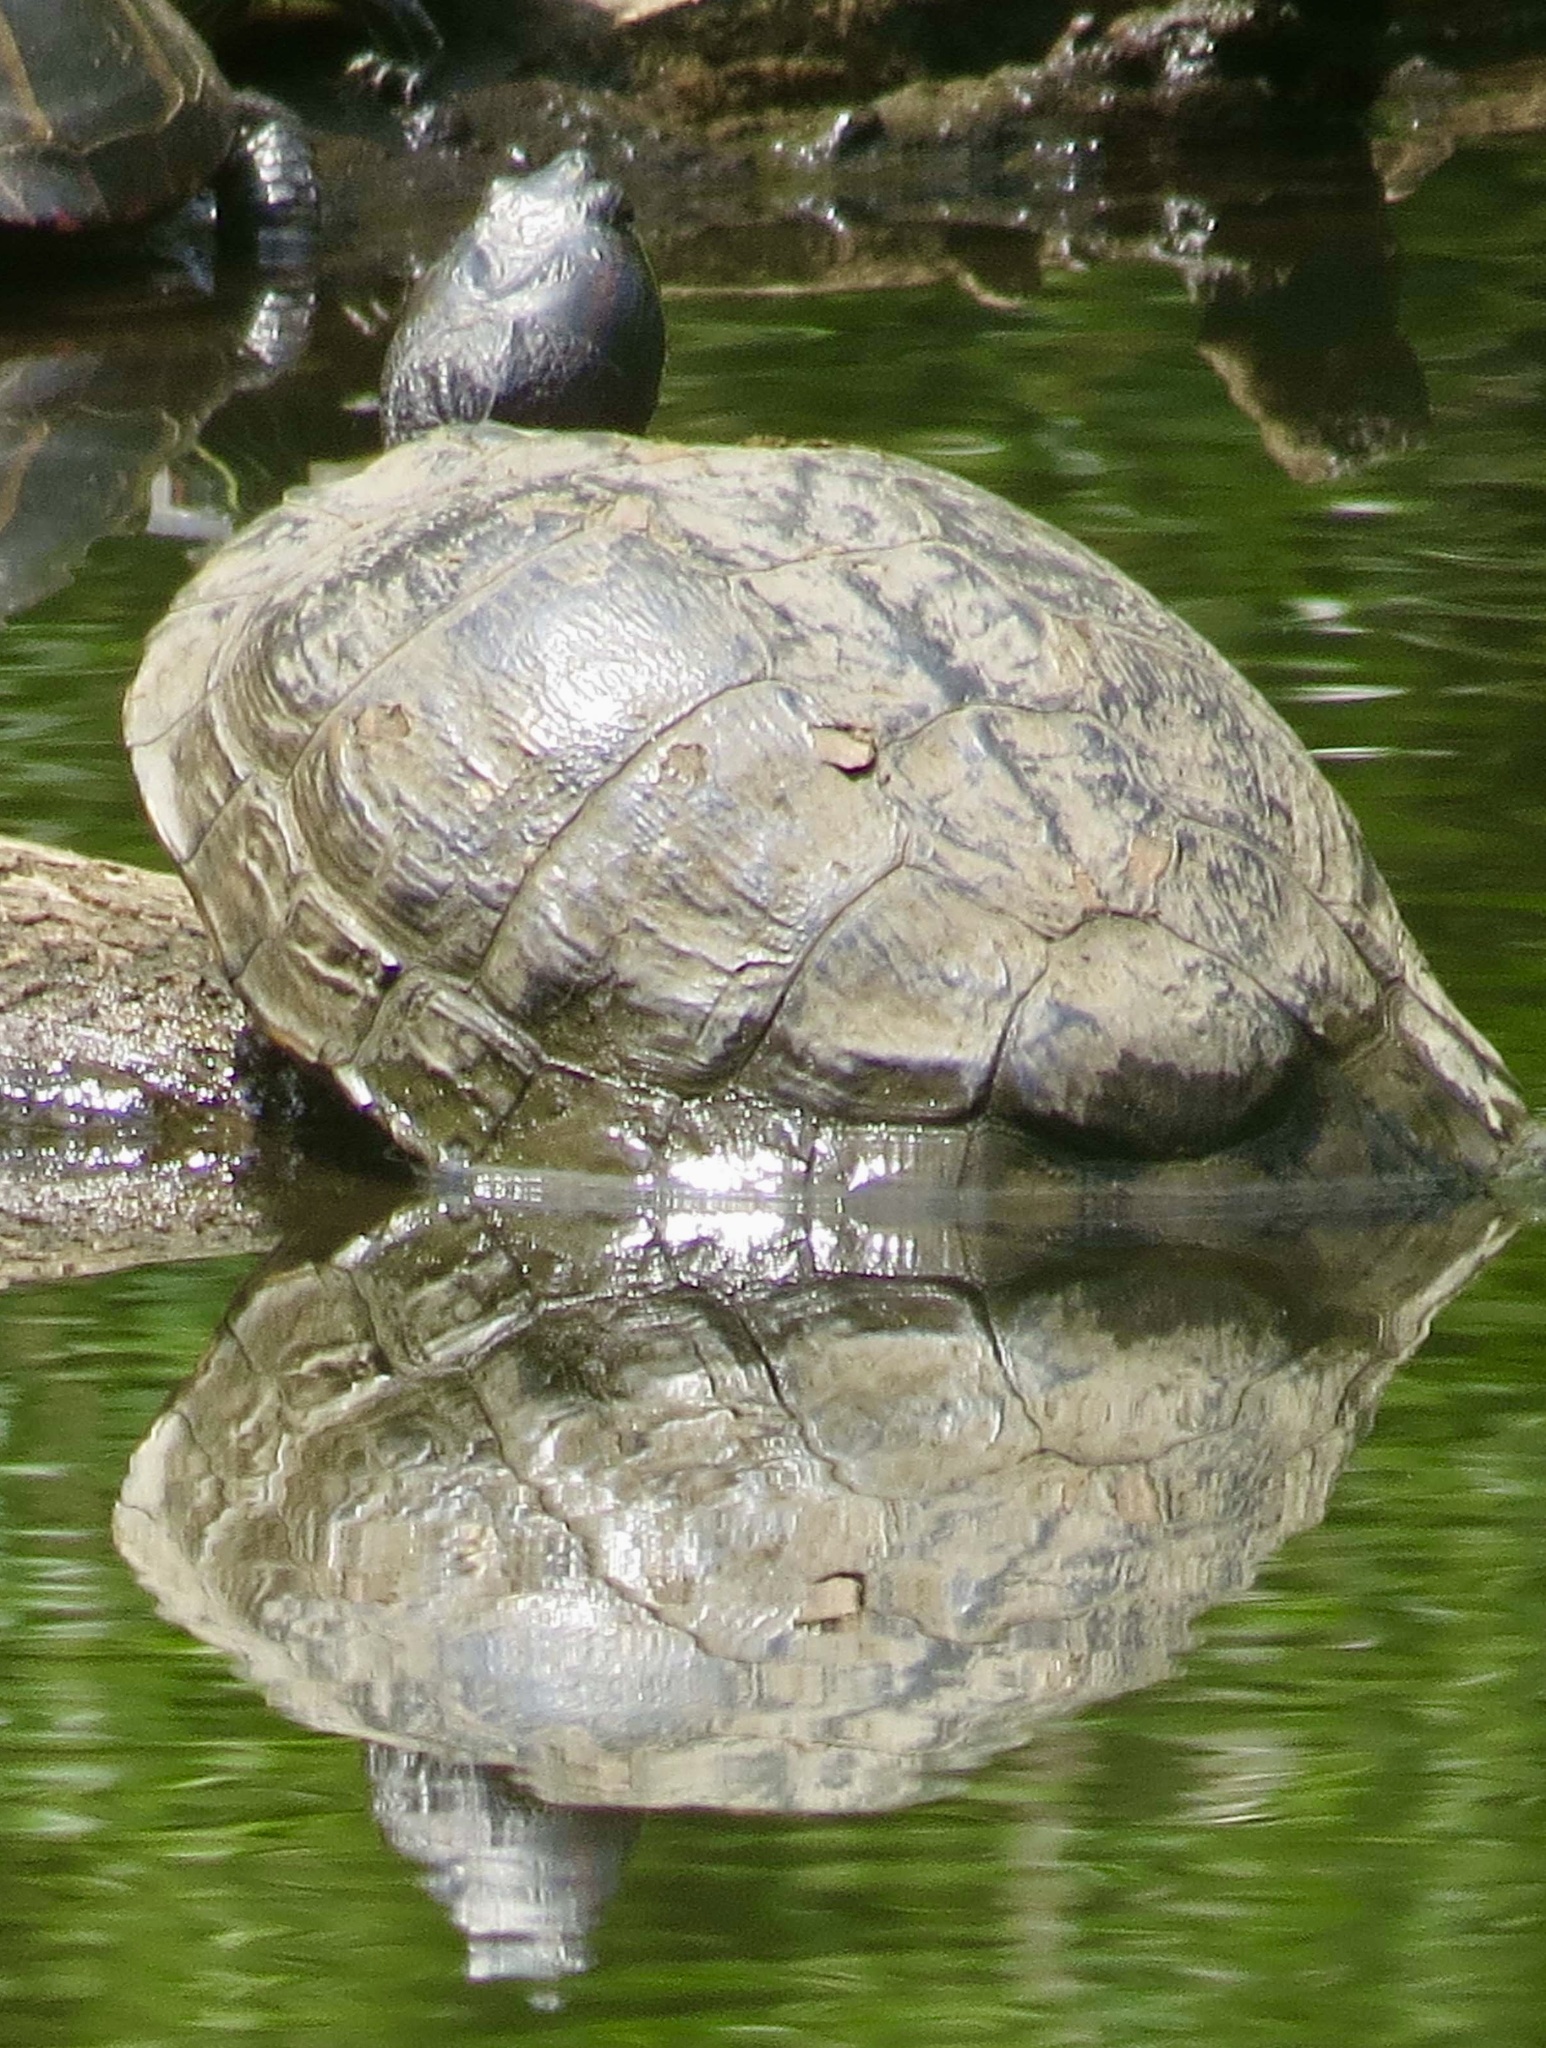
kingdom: Animalia
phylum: Chordata
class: Testudines
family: Emydidae
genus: Trachemys
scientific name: Trachemys scripta
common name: Slider
